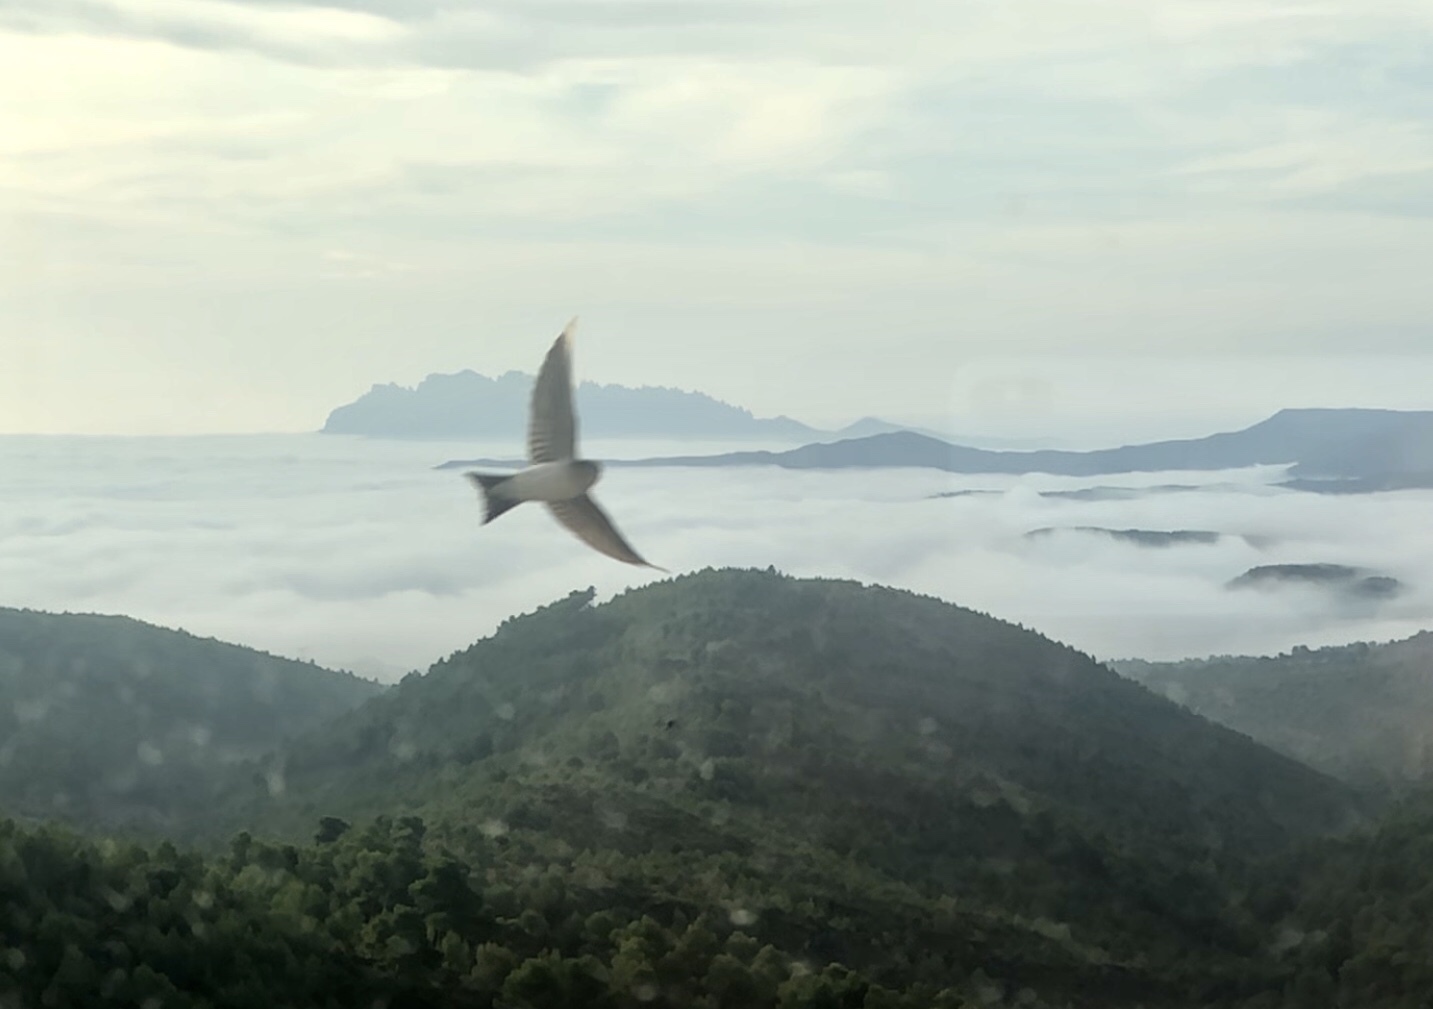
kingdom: Animalia
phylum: Chordata
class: Aves
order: Passeriformes
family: Hirundinidae
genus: Delichon
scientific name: Delichon urbicum
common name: Common house martin
